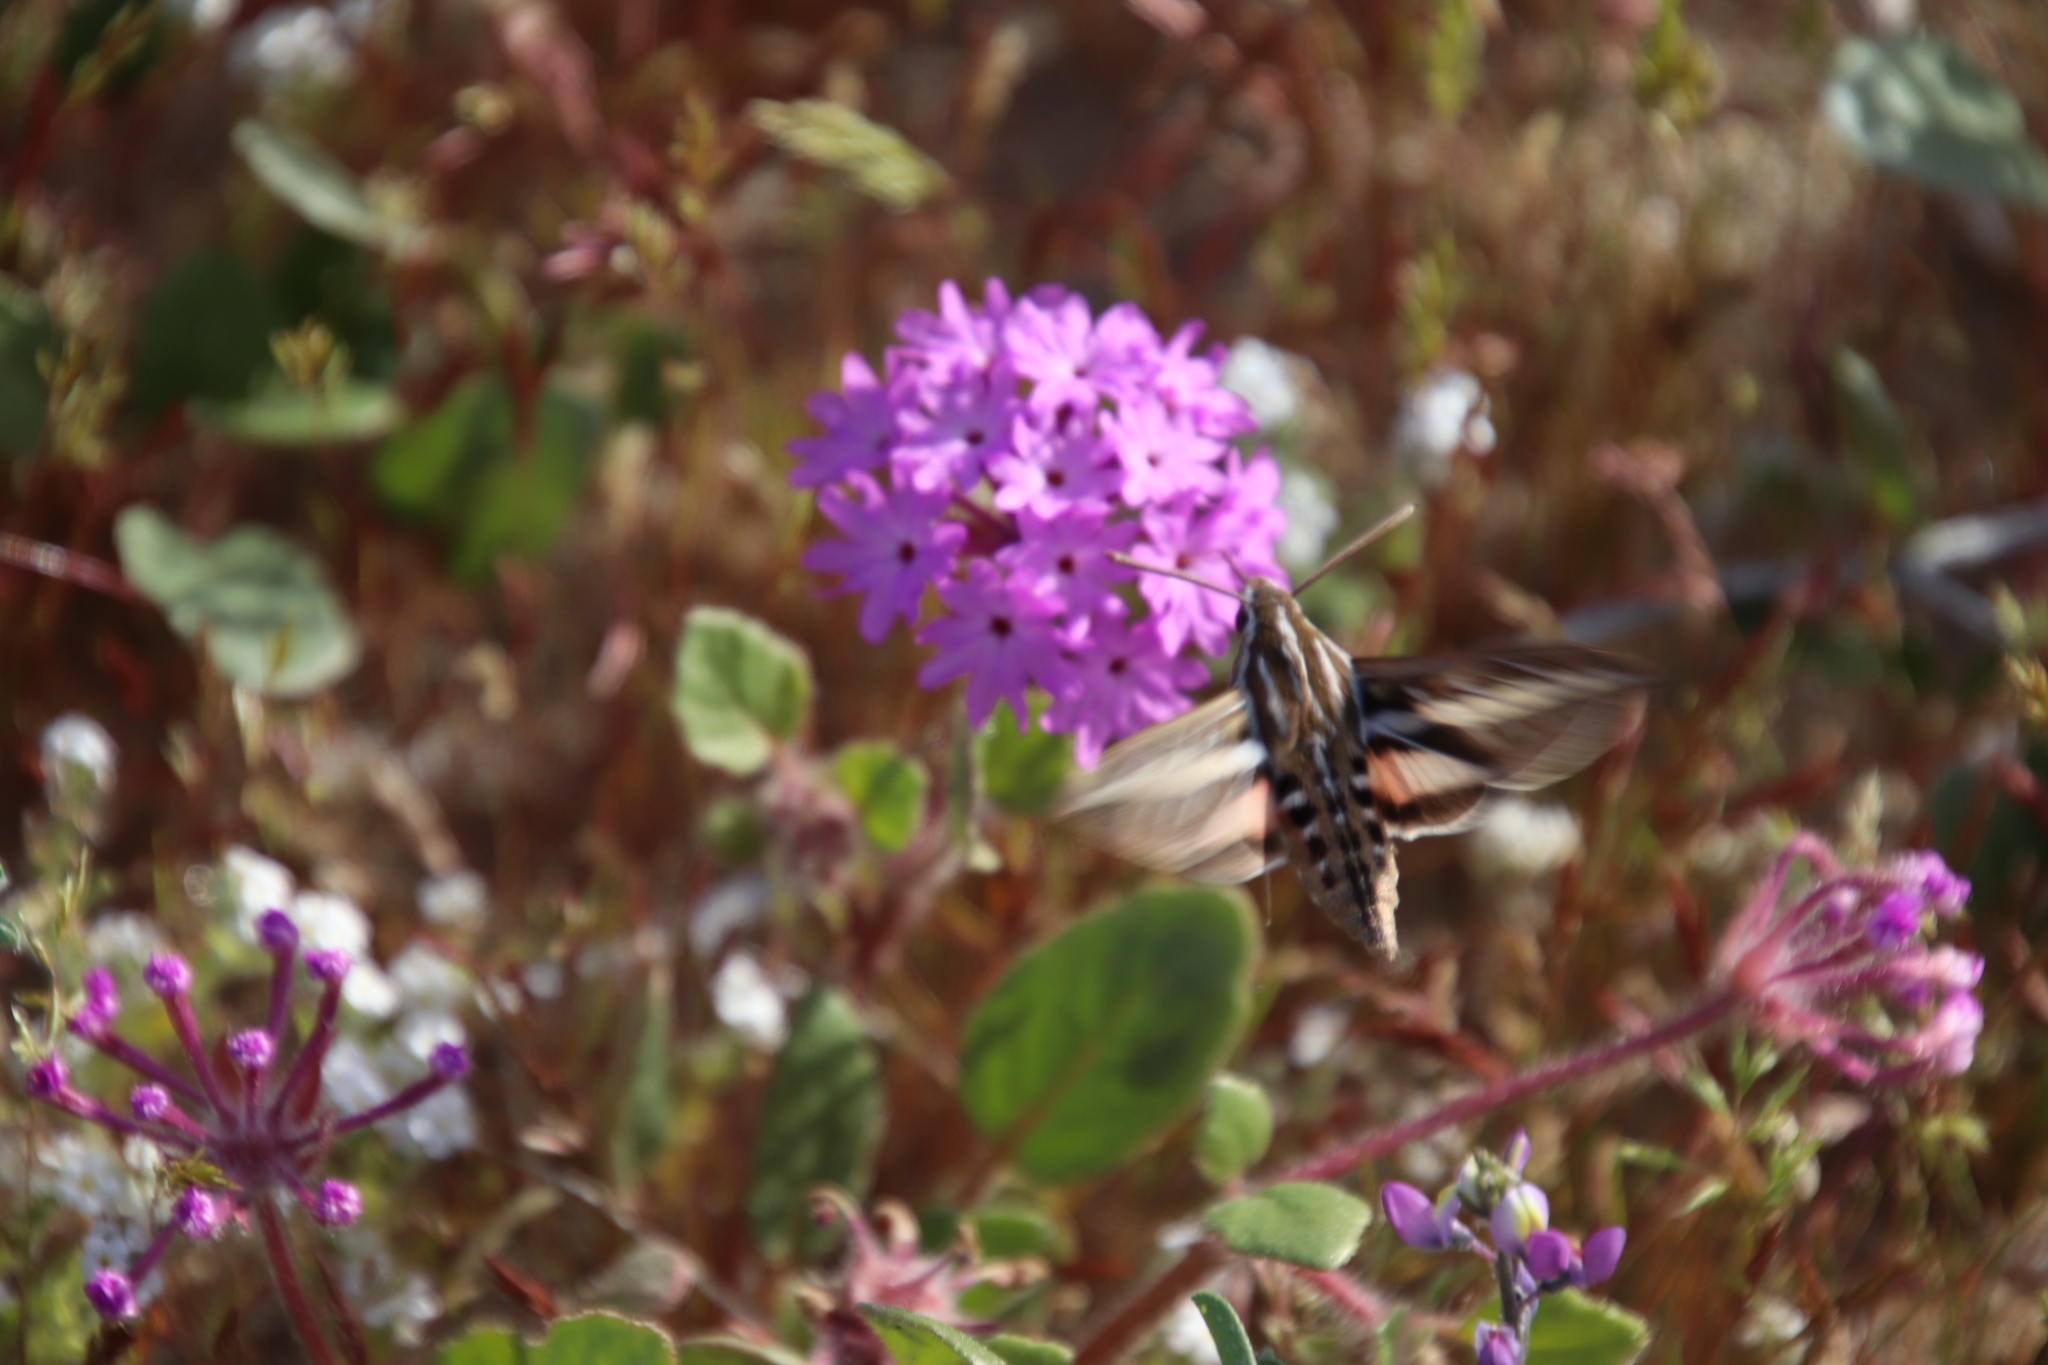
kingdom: Animalia
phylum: Arthropoda
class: Insecta
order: Lepidoptera
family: Sphingidae
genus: Hyles
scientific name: Hyles lineata
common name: White-lined sphinx
